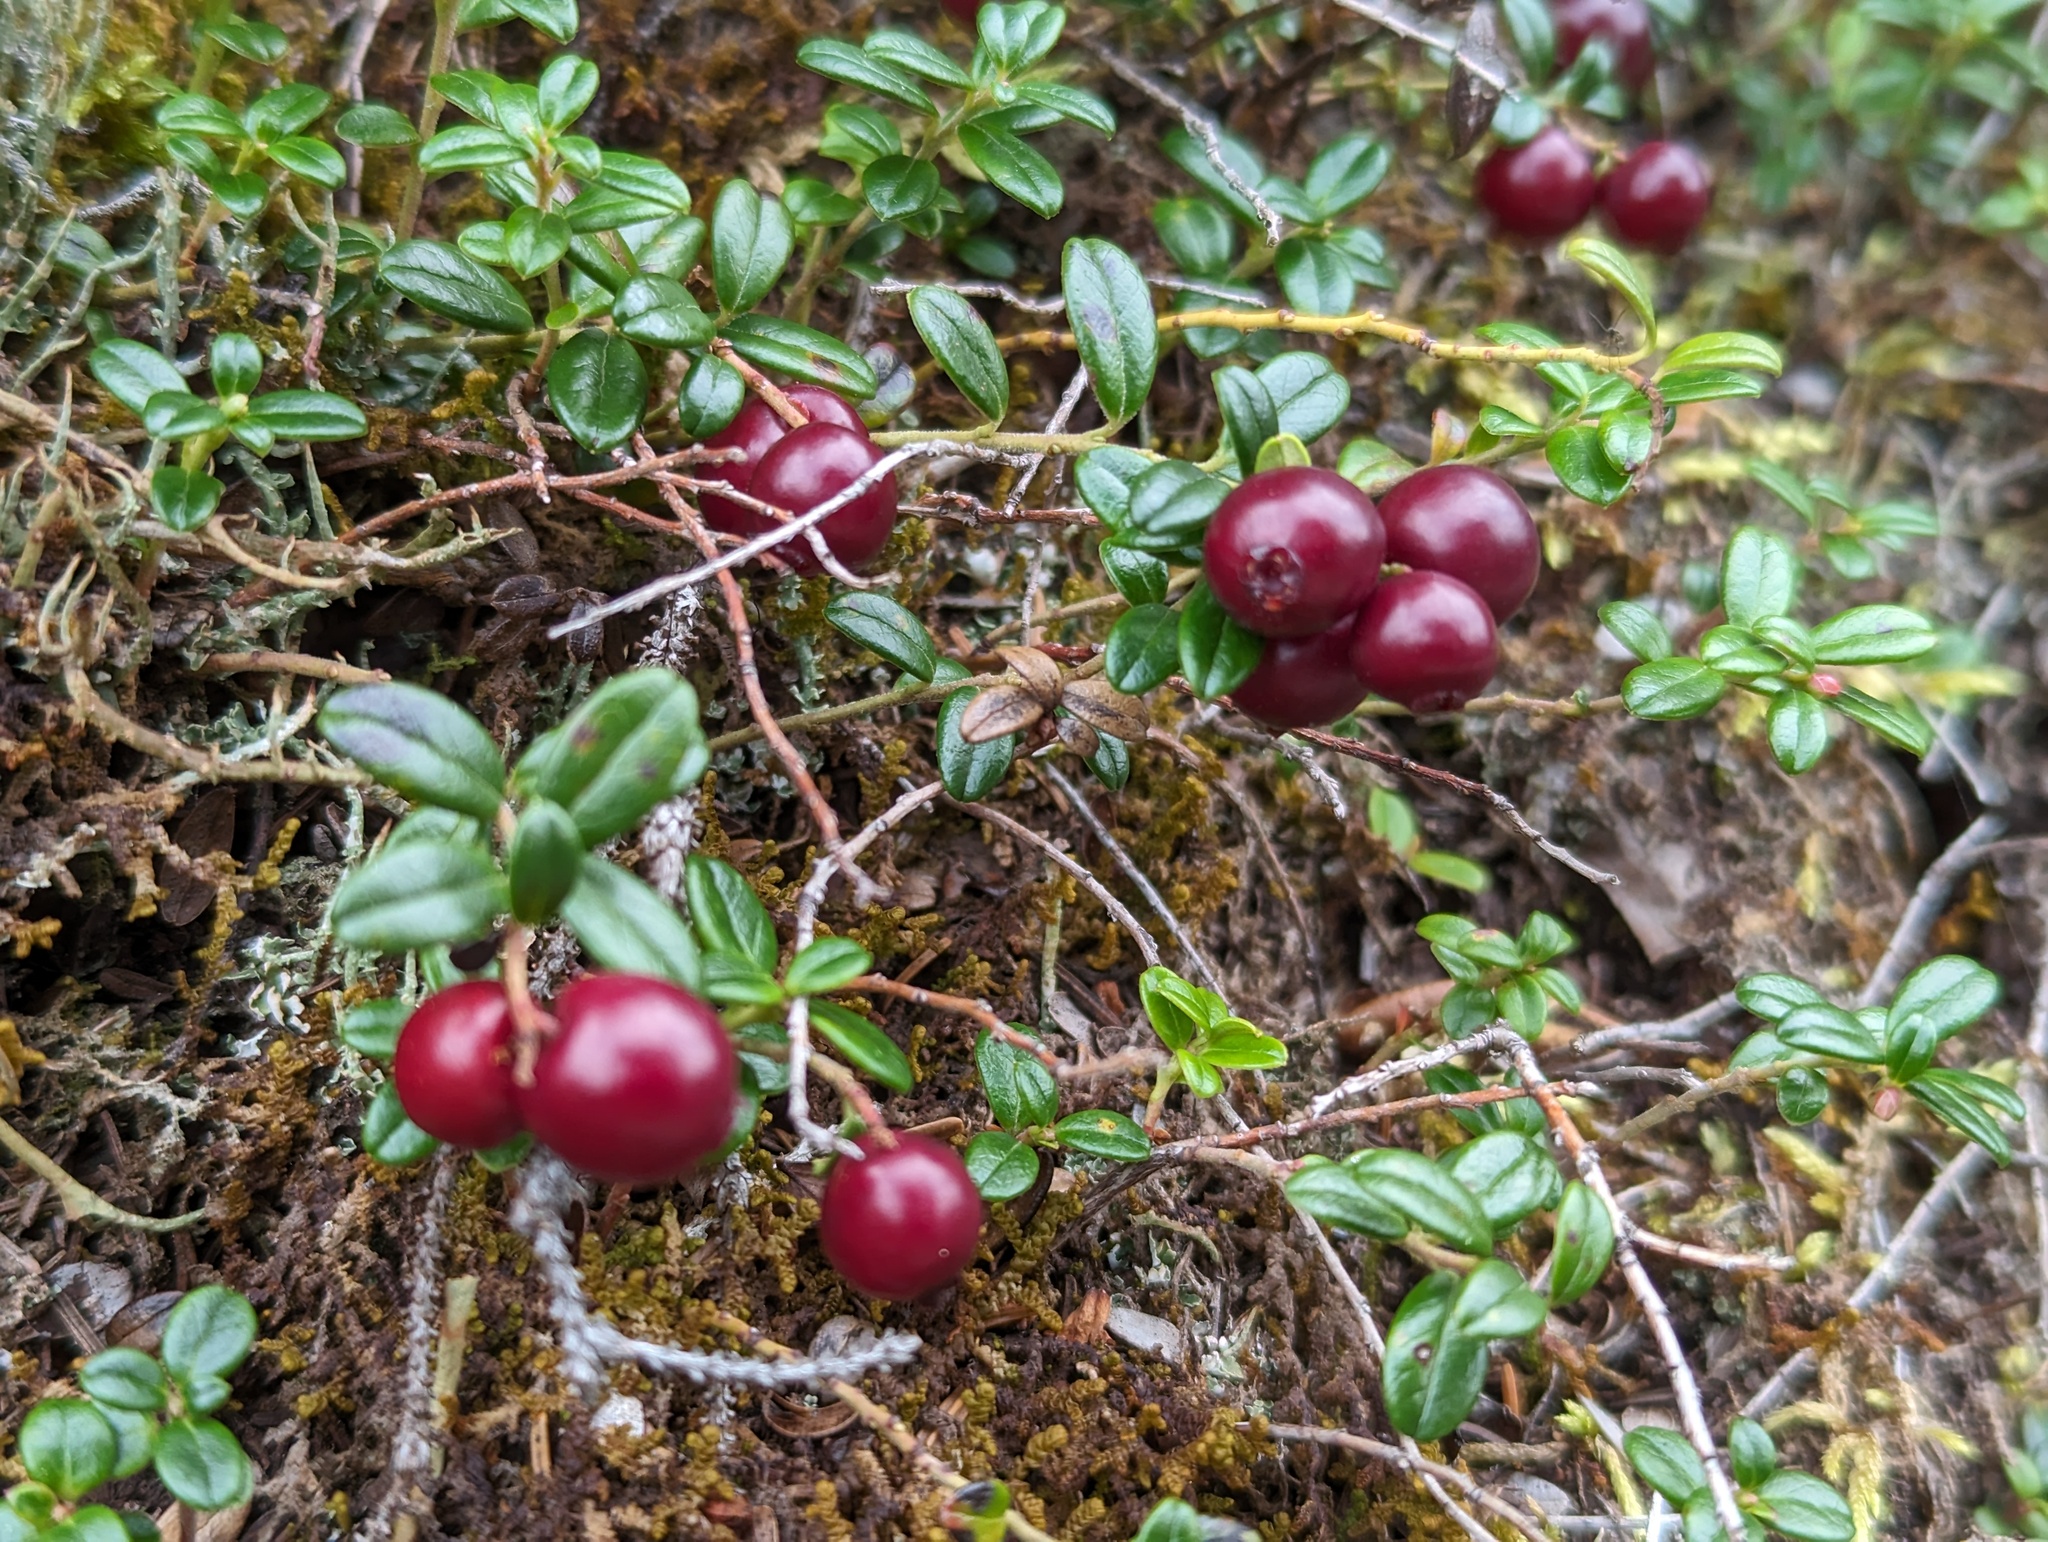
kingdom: Plantae
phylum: Tracheophyta
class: Magnoliopsida
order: Ericales
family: Ericaceae
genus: Vaccinium
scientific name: Vaccinium vitis-idaea
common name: Cowberry
